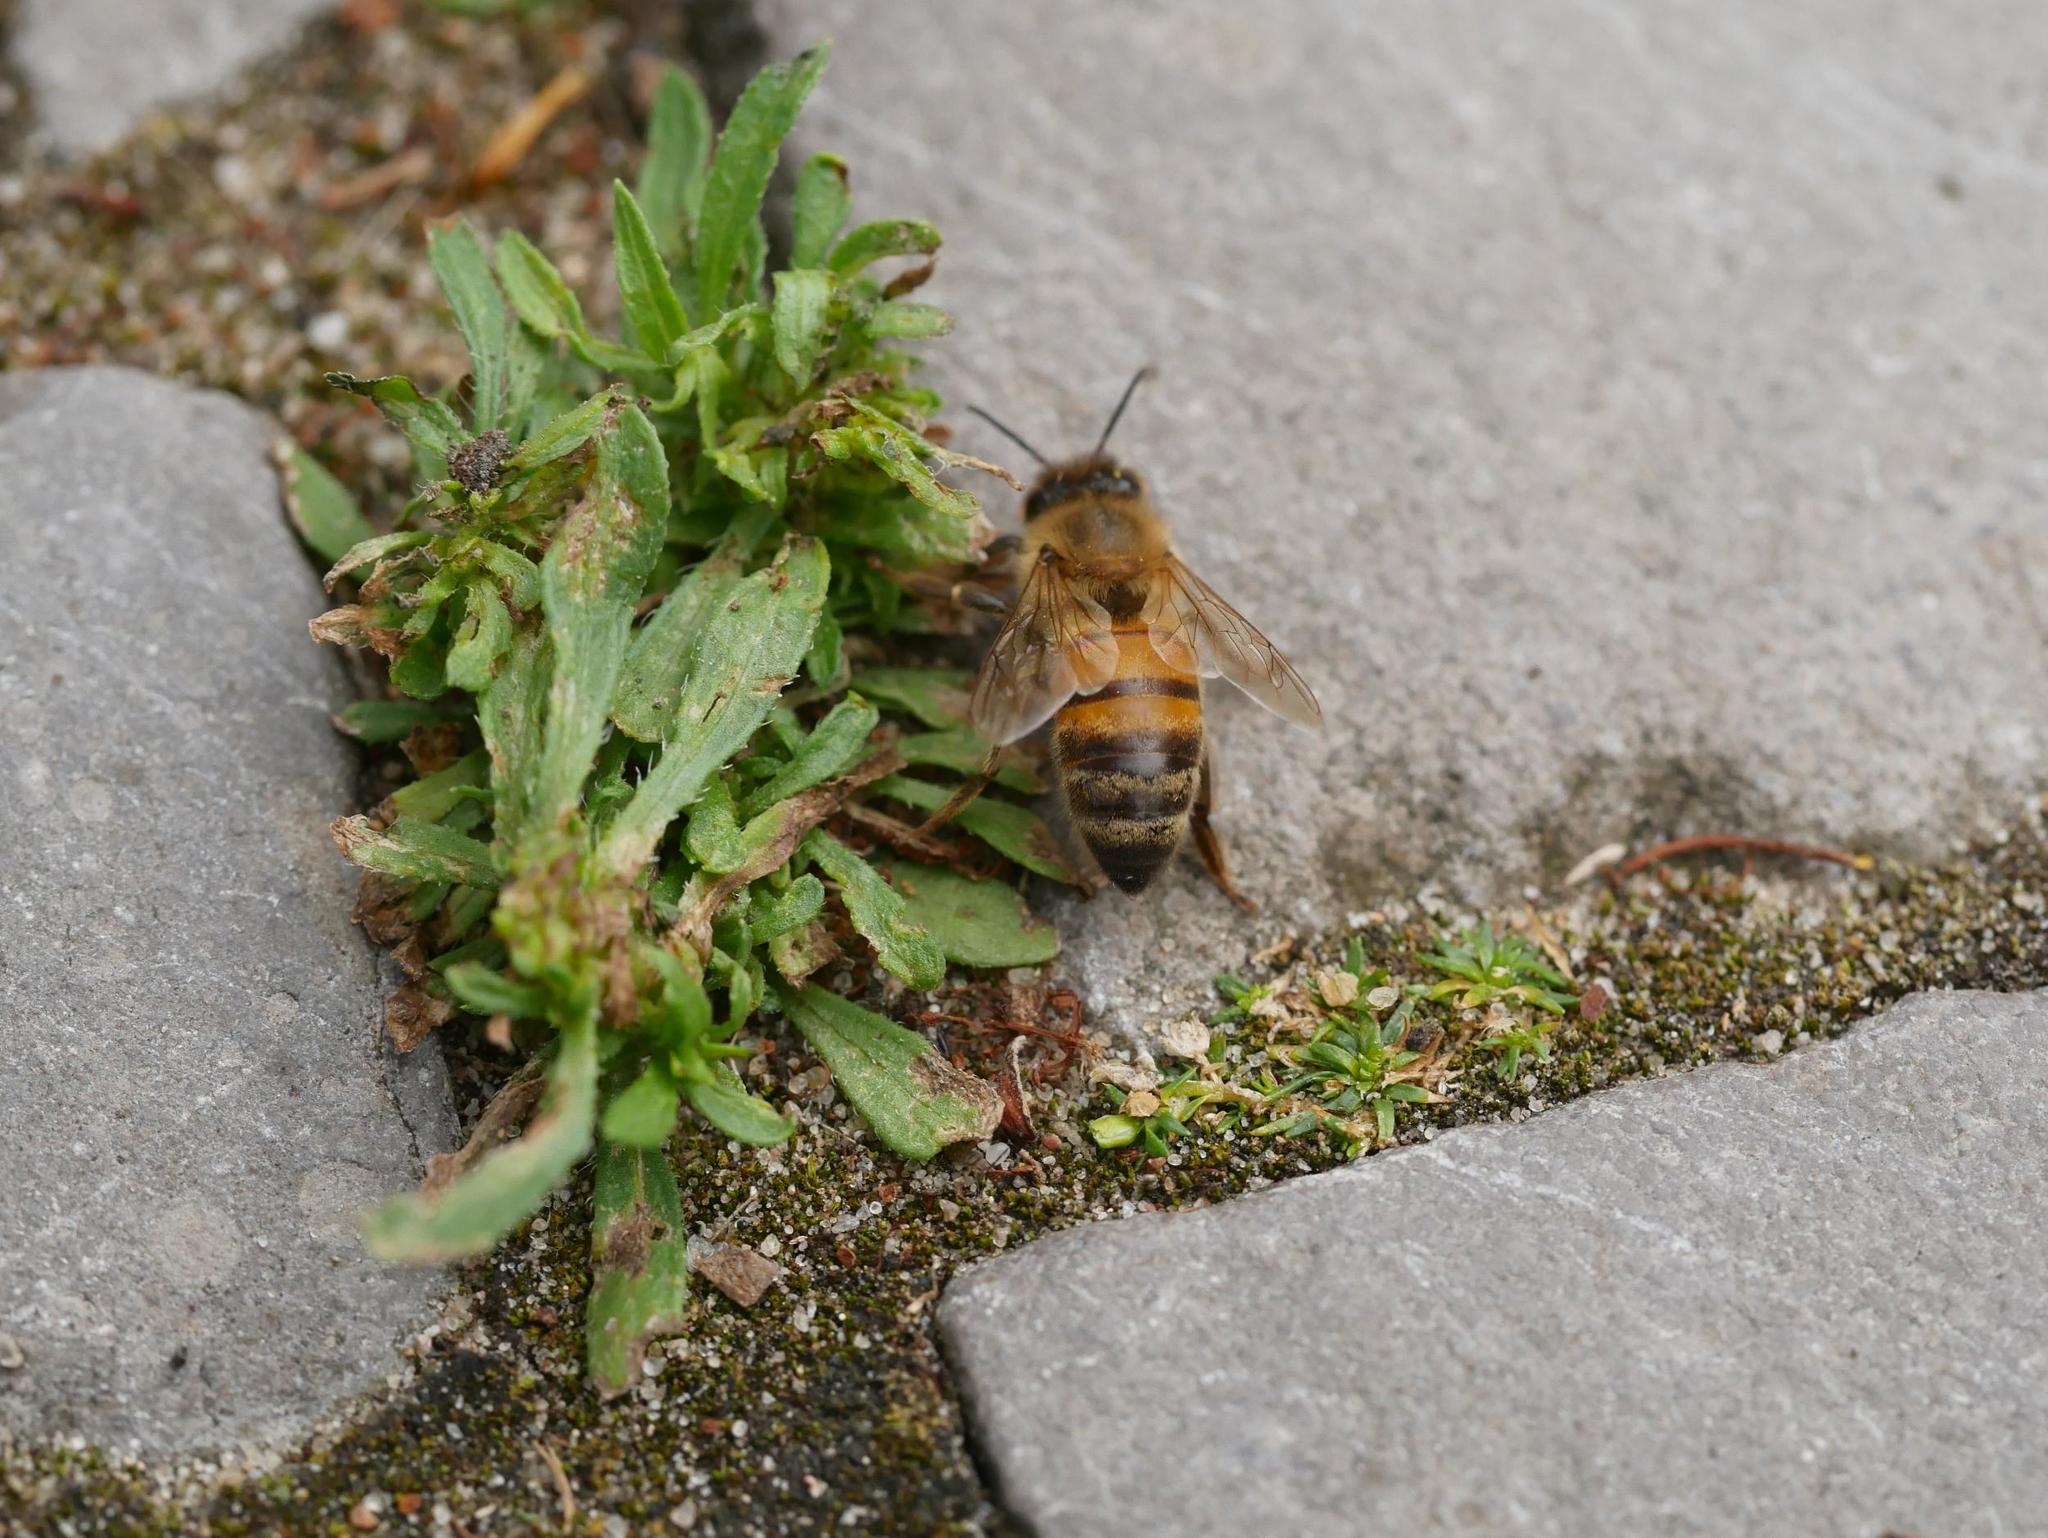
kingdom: Animalia
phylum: Arthropoda
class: Insecta
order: Hymenoptera
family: Apidae
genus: Apis
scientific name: Apis mellifera
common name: Honey bee
